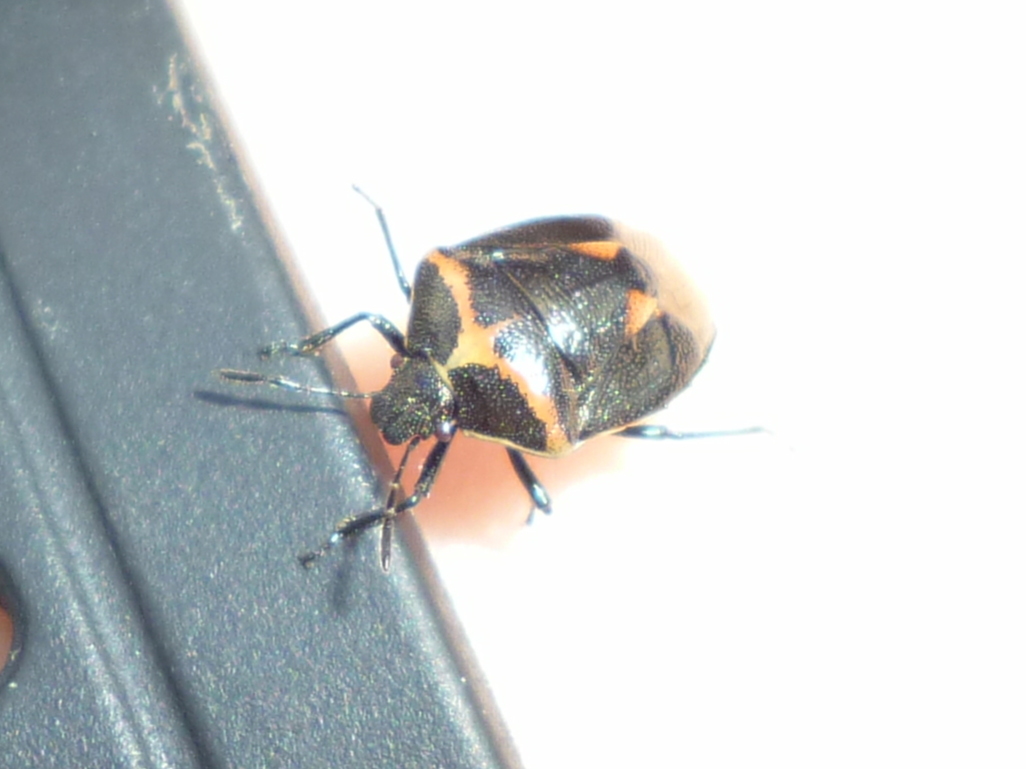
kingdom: Animalia
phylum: Arthropoda
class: Insecta
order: Hemiptera
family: Pentatomidae
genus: Cosmopepla
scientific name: Cosmopepla lintneriana
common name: Twice-stabbed stink bug
